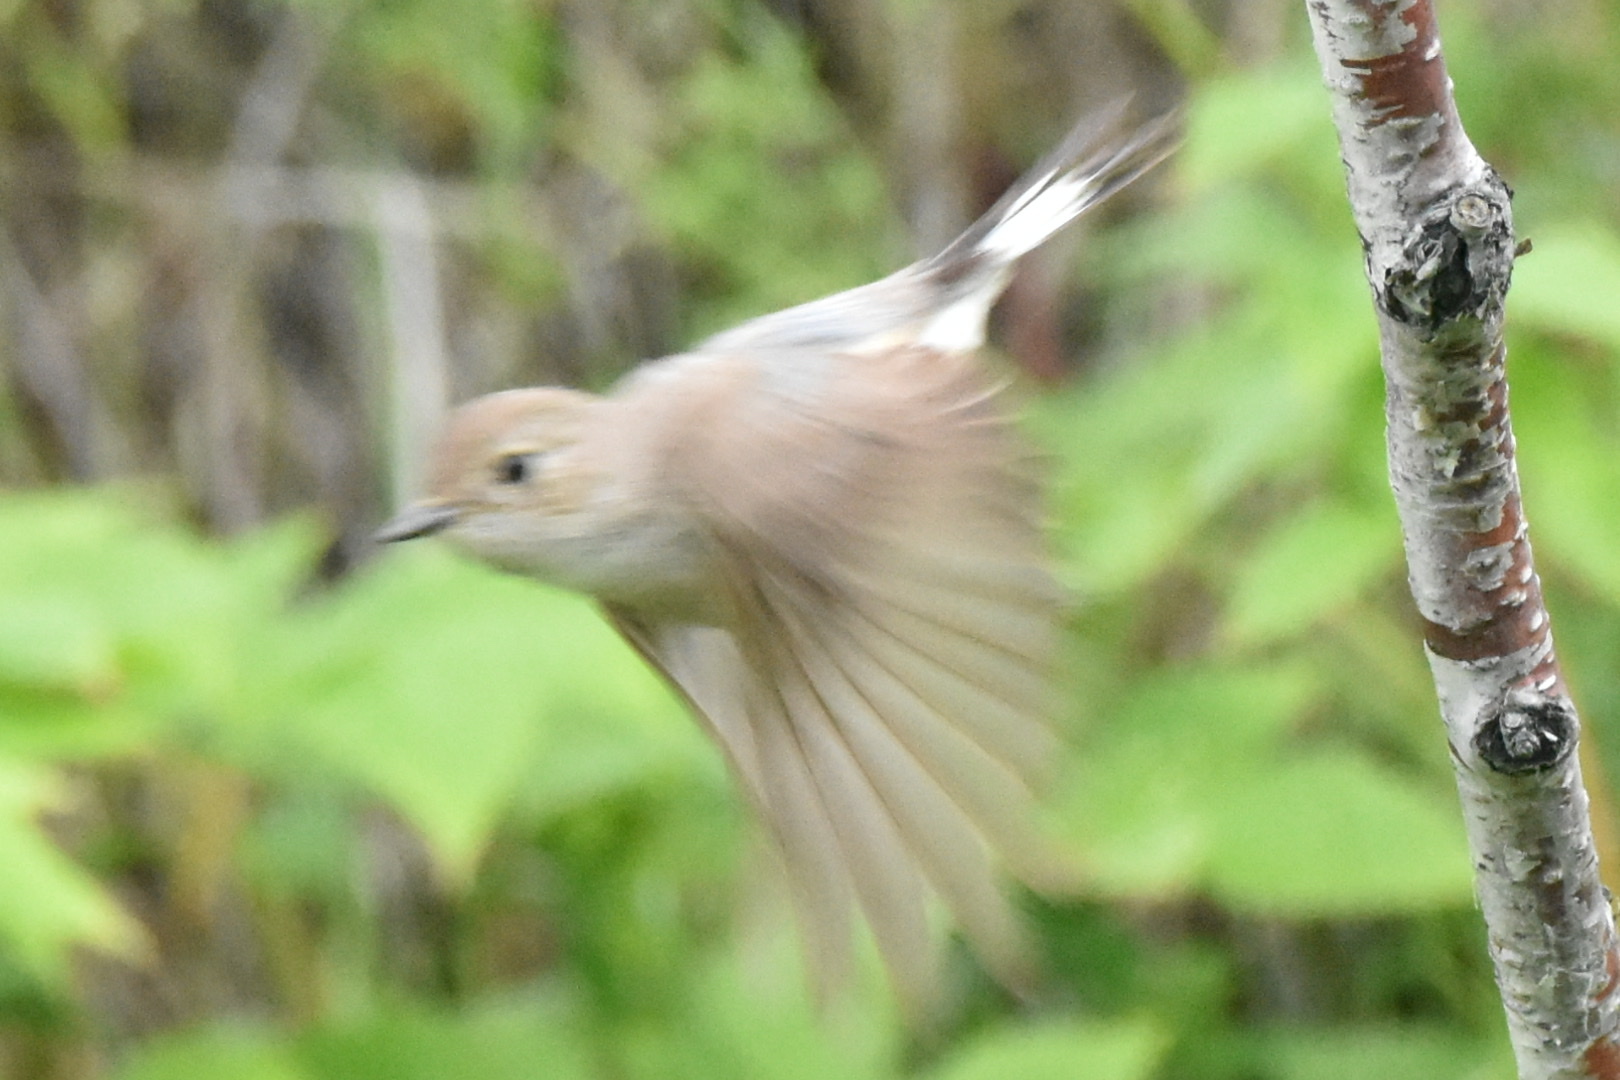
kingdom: Animalia
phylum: Chordata
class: Aves
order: Passeriformes
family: Muscicapidae
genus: Ficedula
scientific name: Ficedula albicilla
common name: Taiga flycatcher
